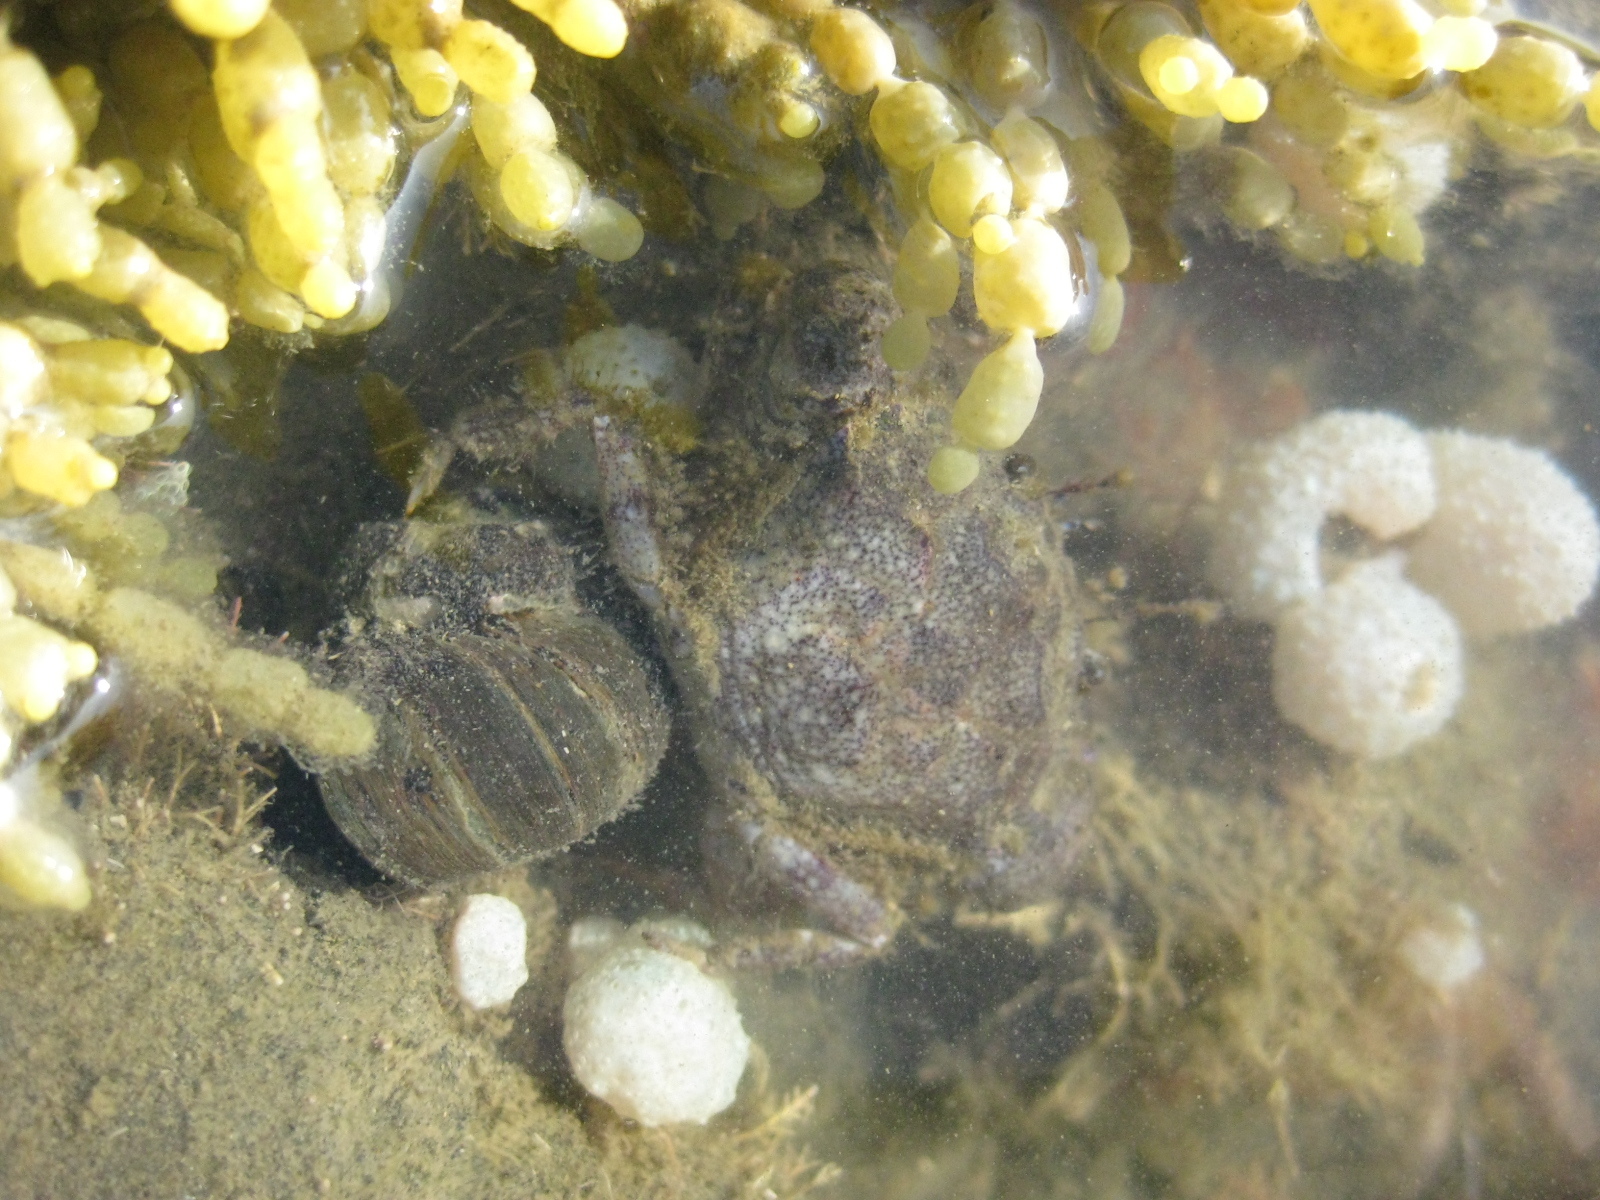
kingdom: Animalia
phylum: Arthropoda
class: Malacostraca
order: Decapoda
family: Pilumnidae
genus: Pilumnopeus
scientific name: Pilumnopeus serratifrons
